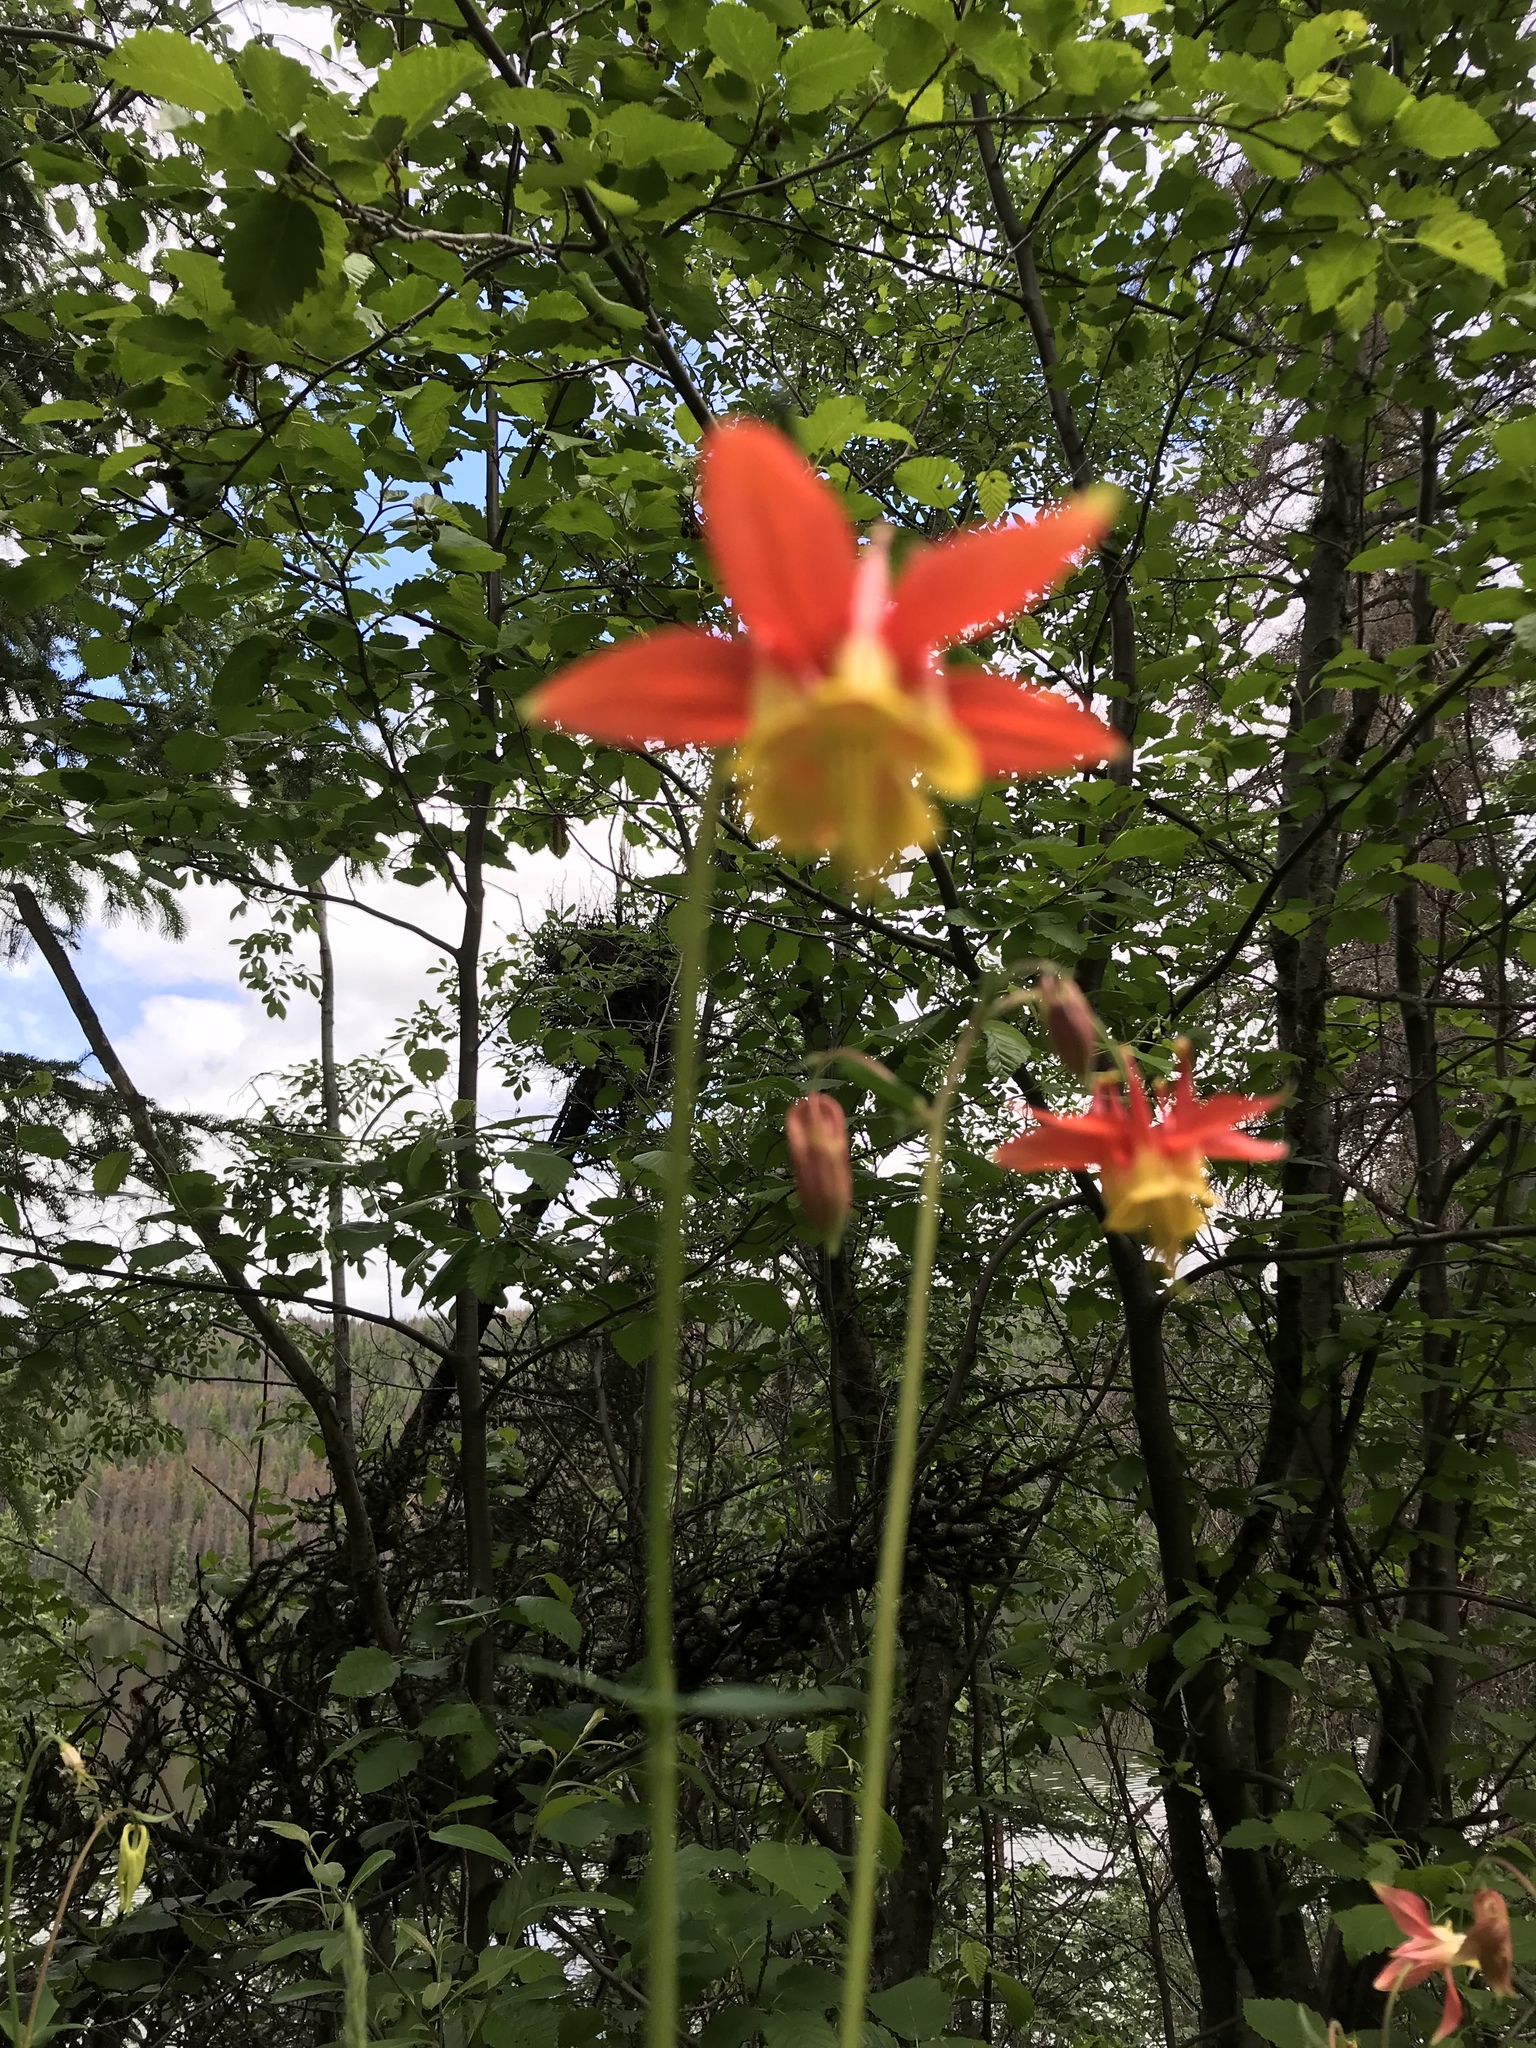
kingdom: Plantae
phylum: Tracheophyta
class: Magnoliopsida
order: Ranunculales
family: Ranunculaceae
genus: Aquilegia
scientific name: Aquilegia formosa
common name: Sitka columbine
